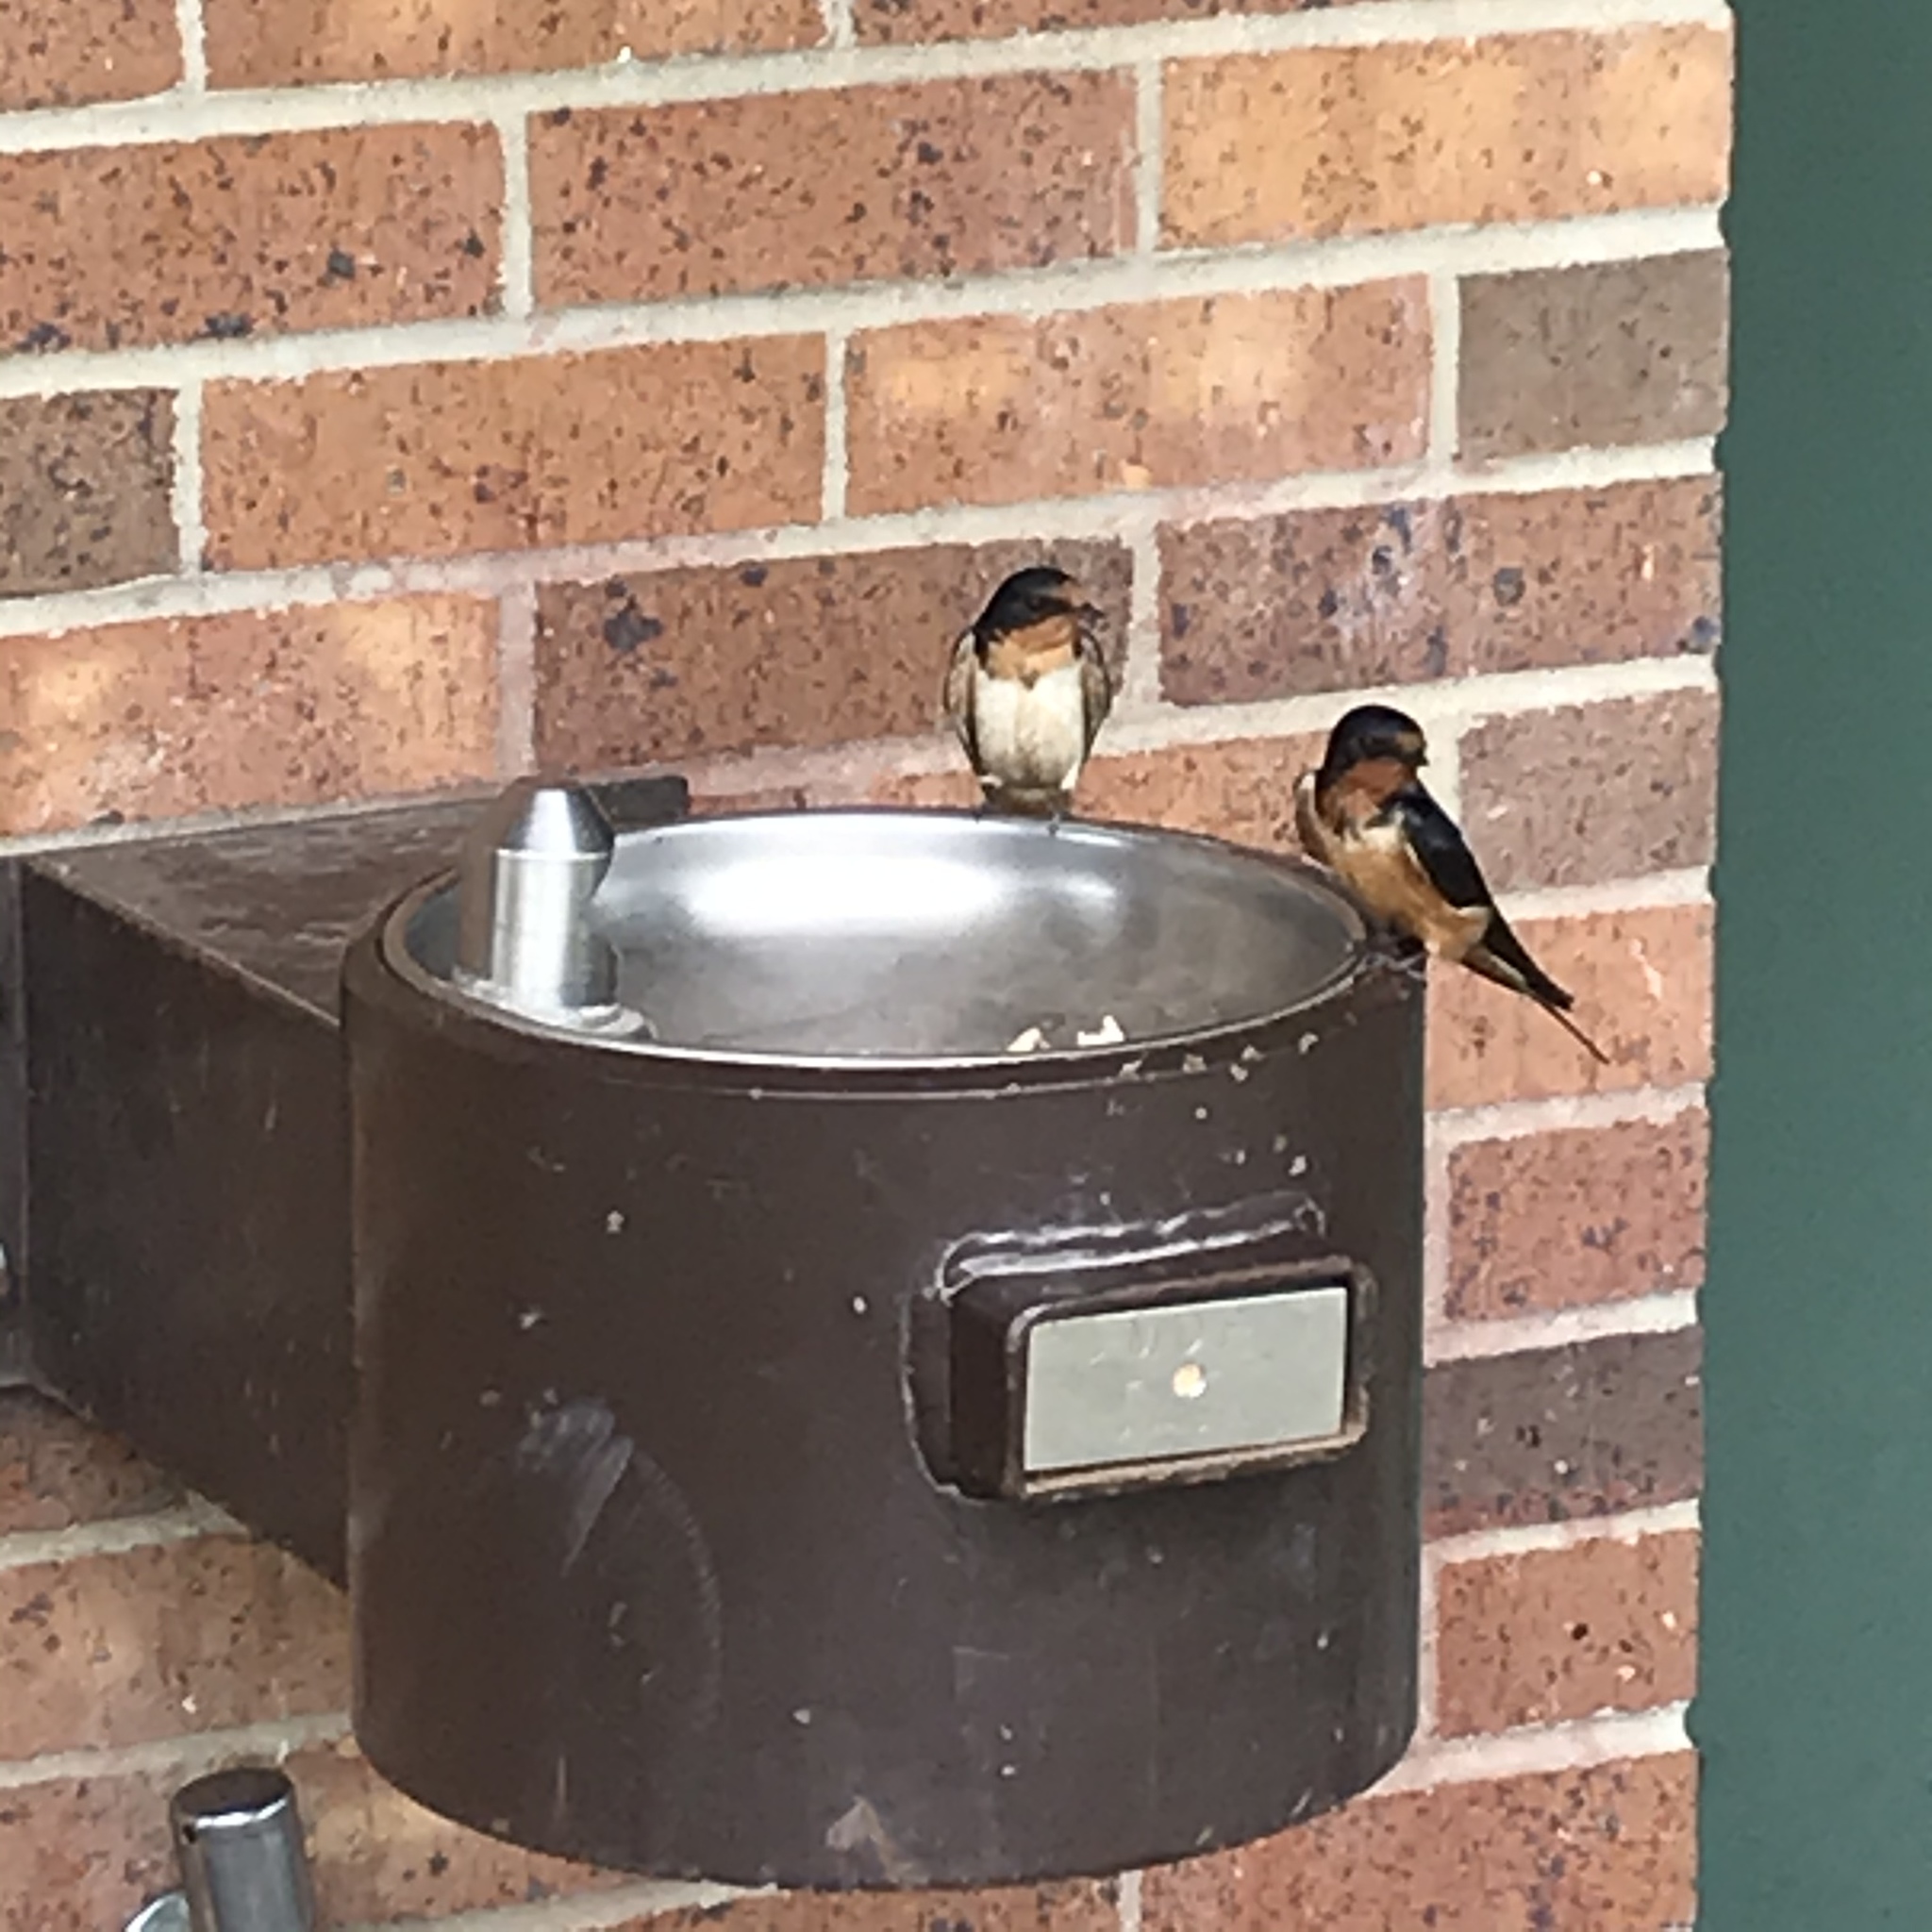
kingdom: Animalia
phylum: Chordata
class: Aves
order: Passeriformes
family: Hirundinidae
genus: Hirundo
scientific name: Hirundo rustica
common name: Barn swallow
